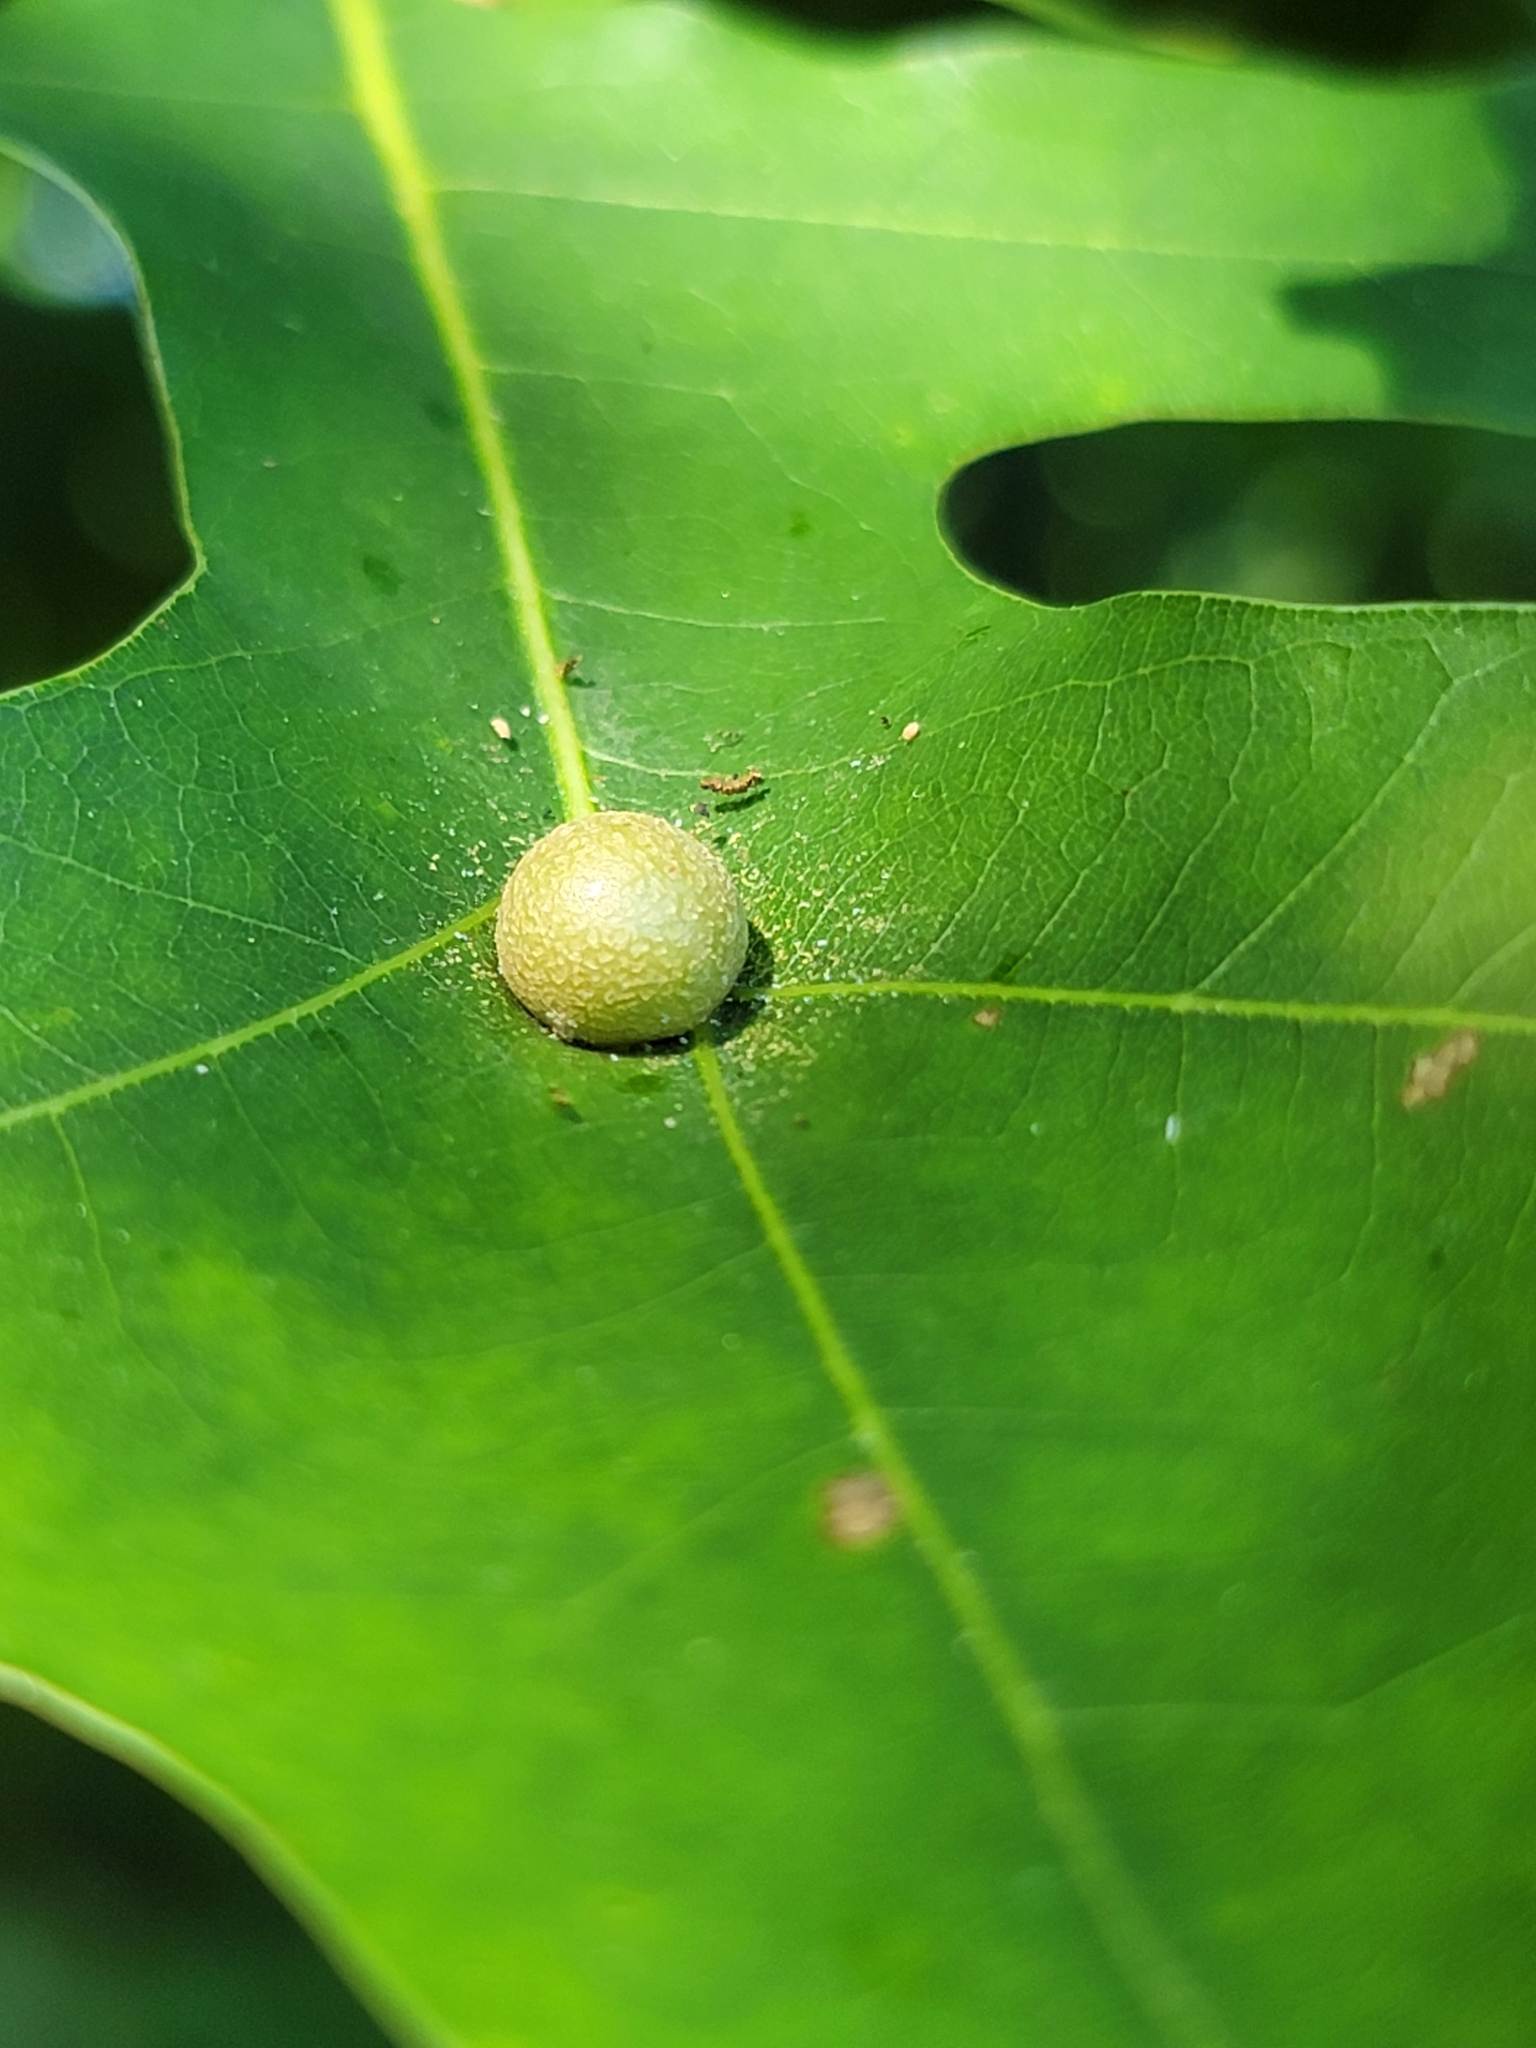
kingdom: Animalia
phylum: Arthropoda
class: Insecta
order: Diptera
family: Cecidomyiidae
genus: Polystepha
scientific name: Polystepha pilulae
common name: Oak leaf gall midge
